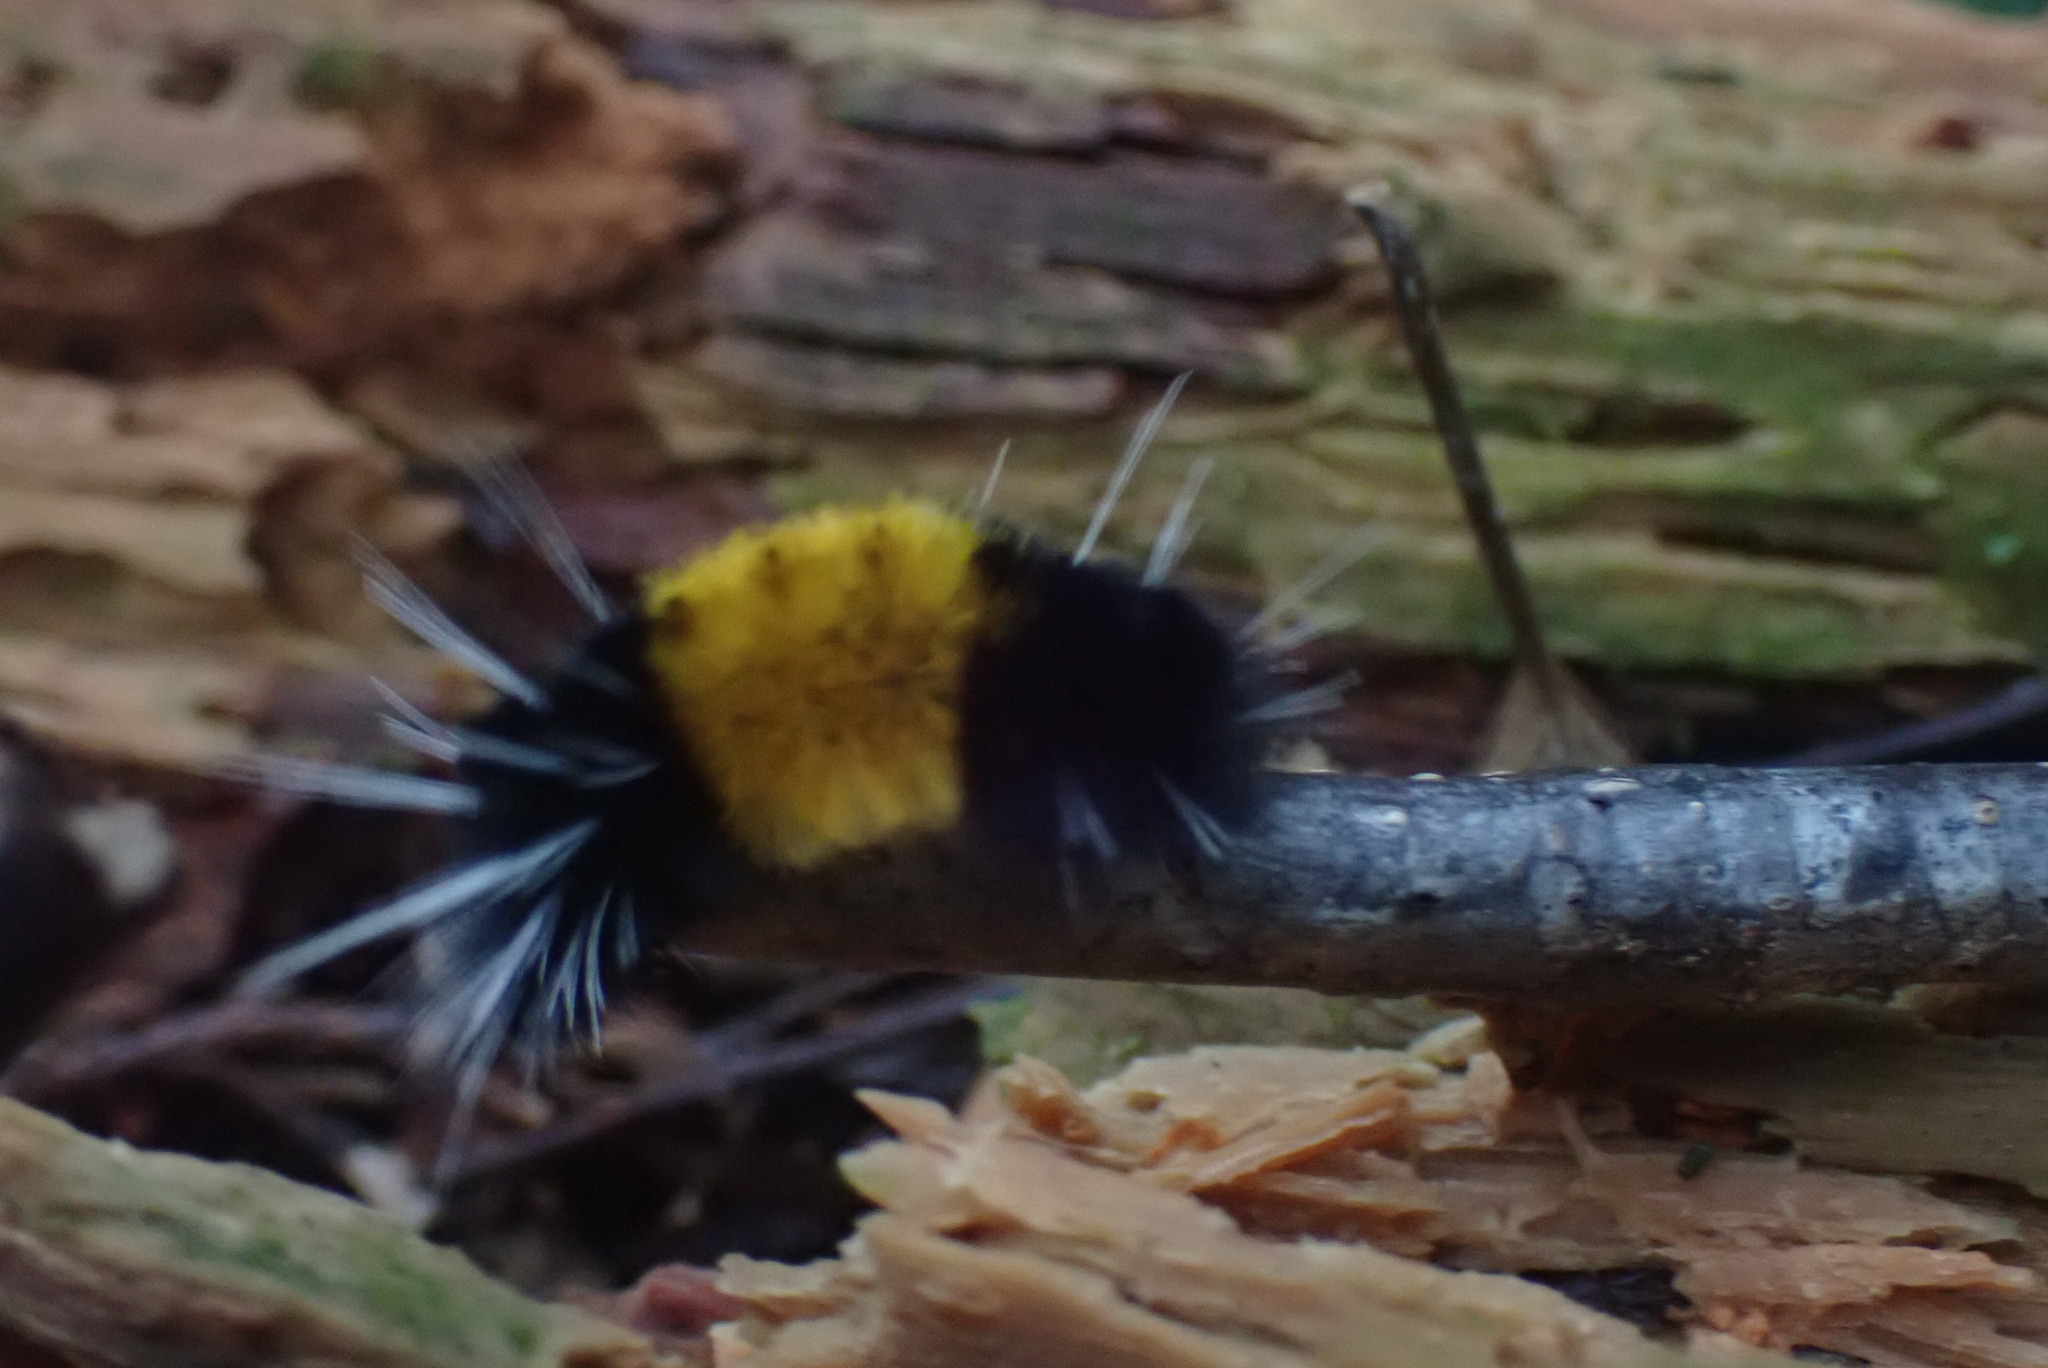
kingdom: Animalia
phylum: Arthropoda
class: Insecta
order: Lepidoptera
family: Erebidae
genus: Lophocampa
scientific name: Lophocampa maculata
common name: Spotted tussock moth
